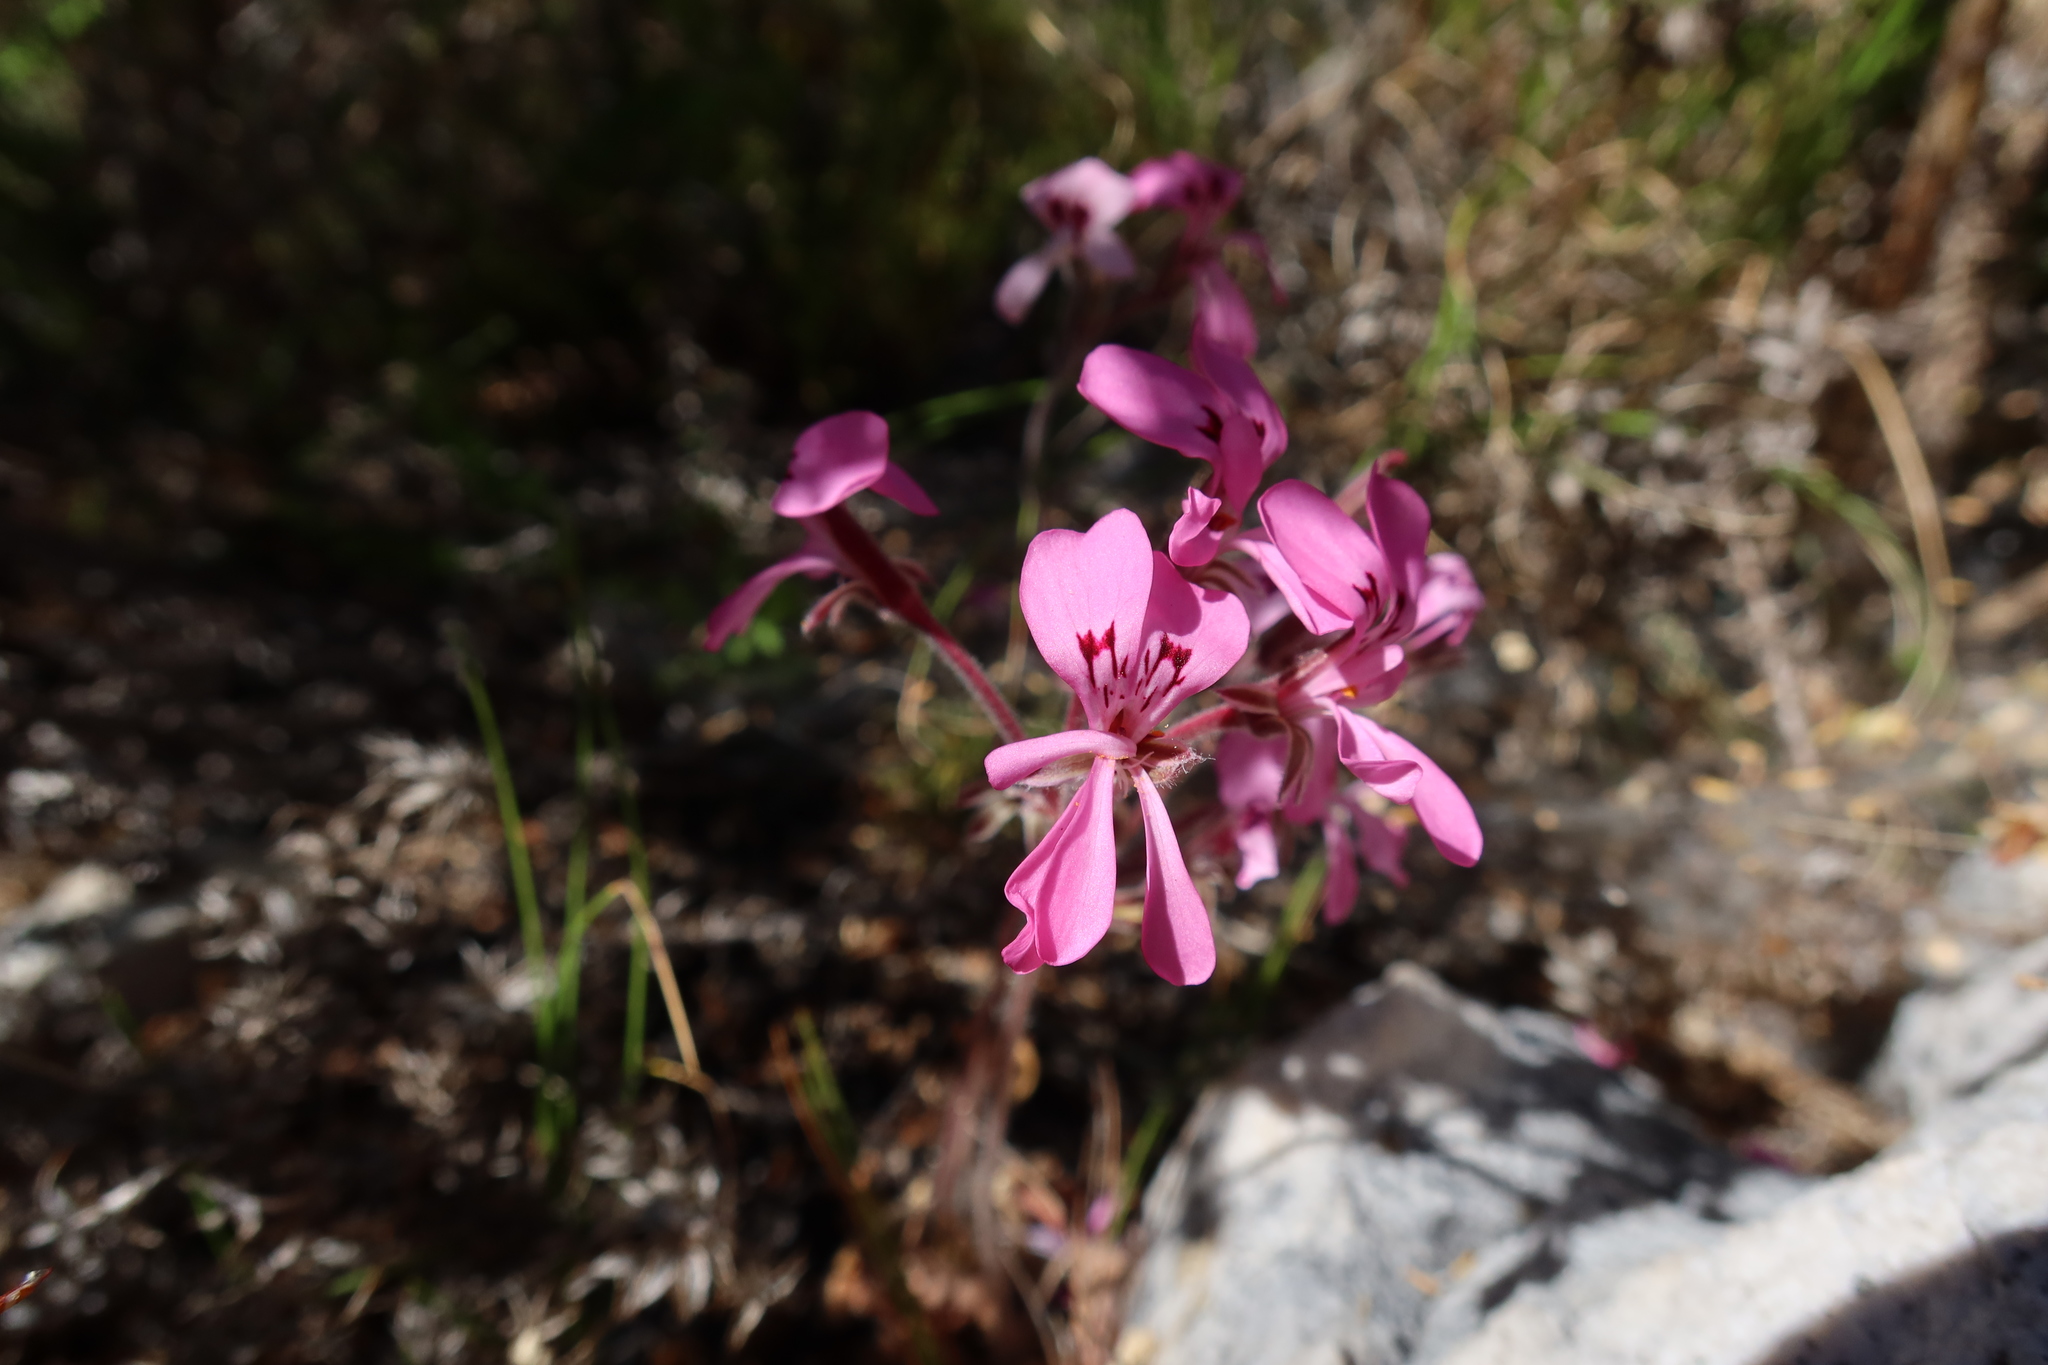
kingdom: Plantae
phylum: Tracheophyta
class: Magnoliopsida
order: Geraniales
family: Geraniaceae
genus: Pelargonium
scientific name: Pelargonium psammophilum
